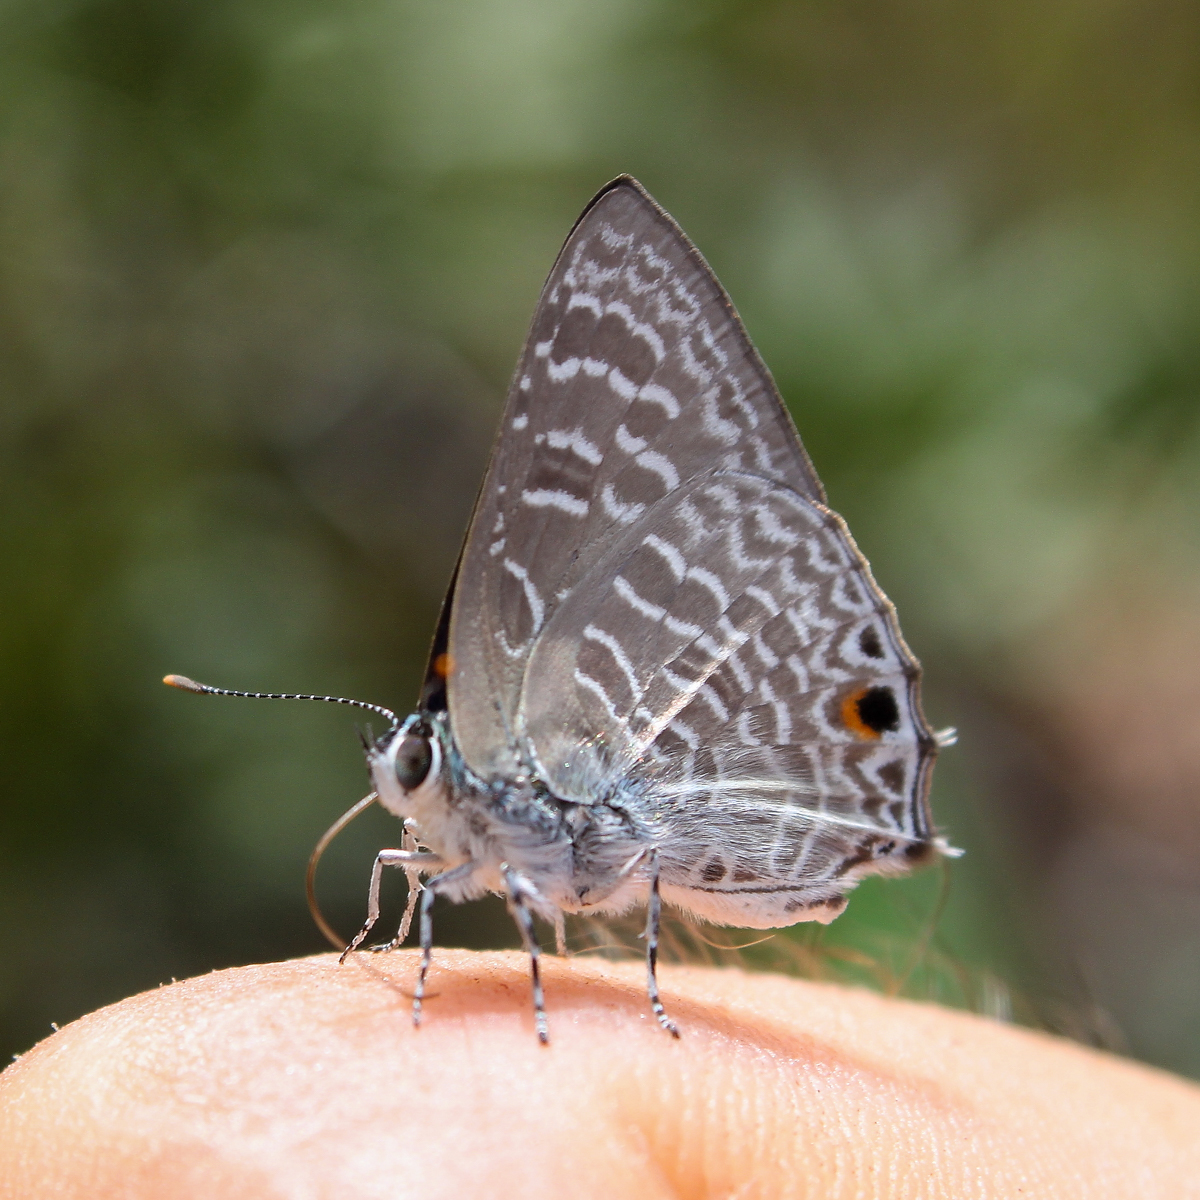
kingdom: Animalia
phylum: Arthropoda
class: Insecta
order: Lepidoptera
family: Lycaenidae
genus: Anthene
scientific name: Anthene licates
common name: White ciliate blue
